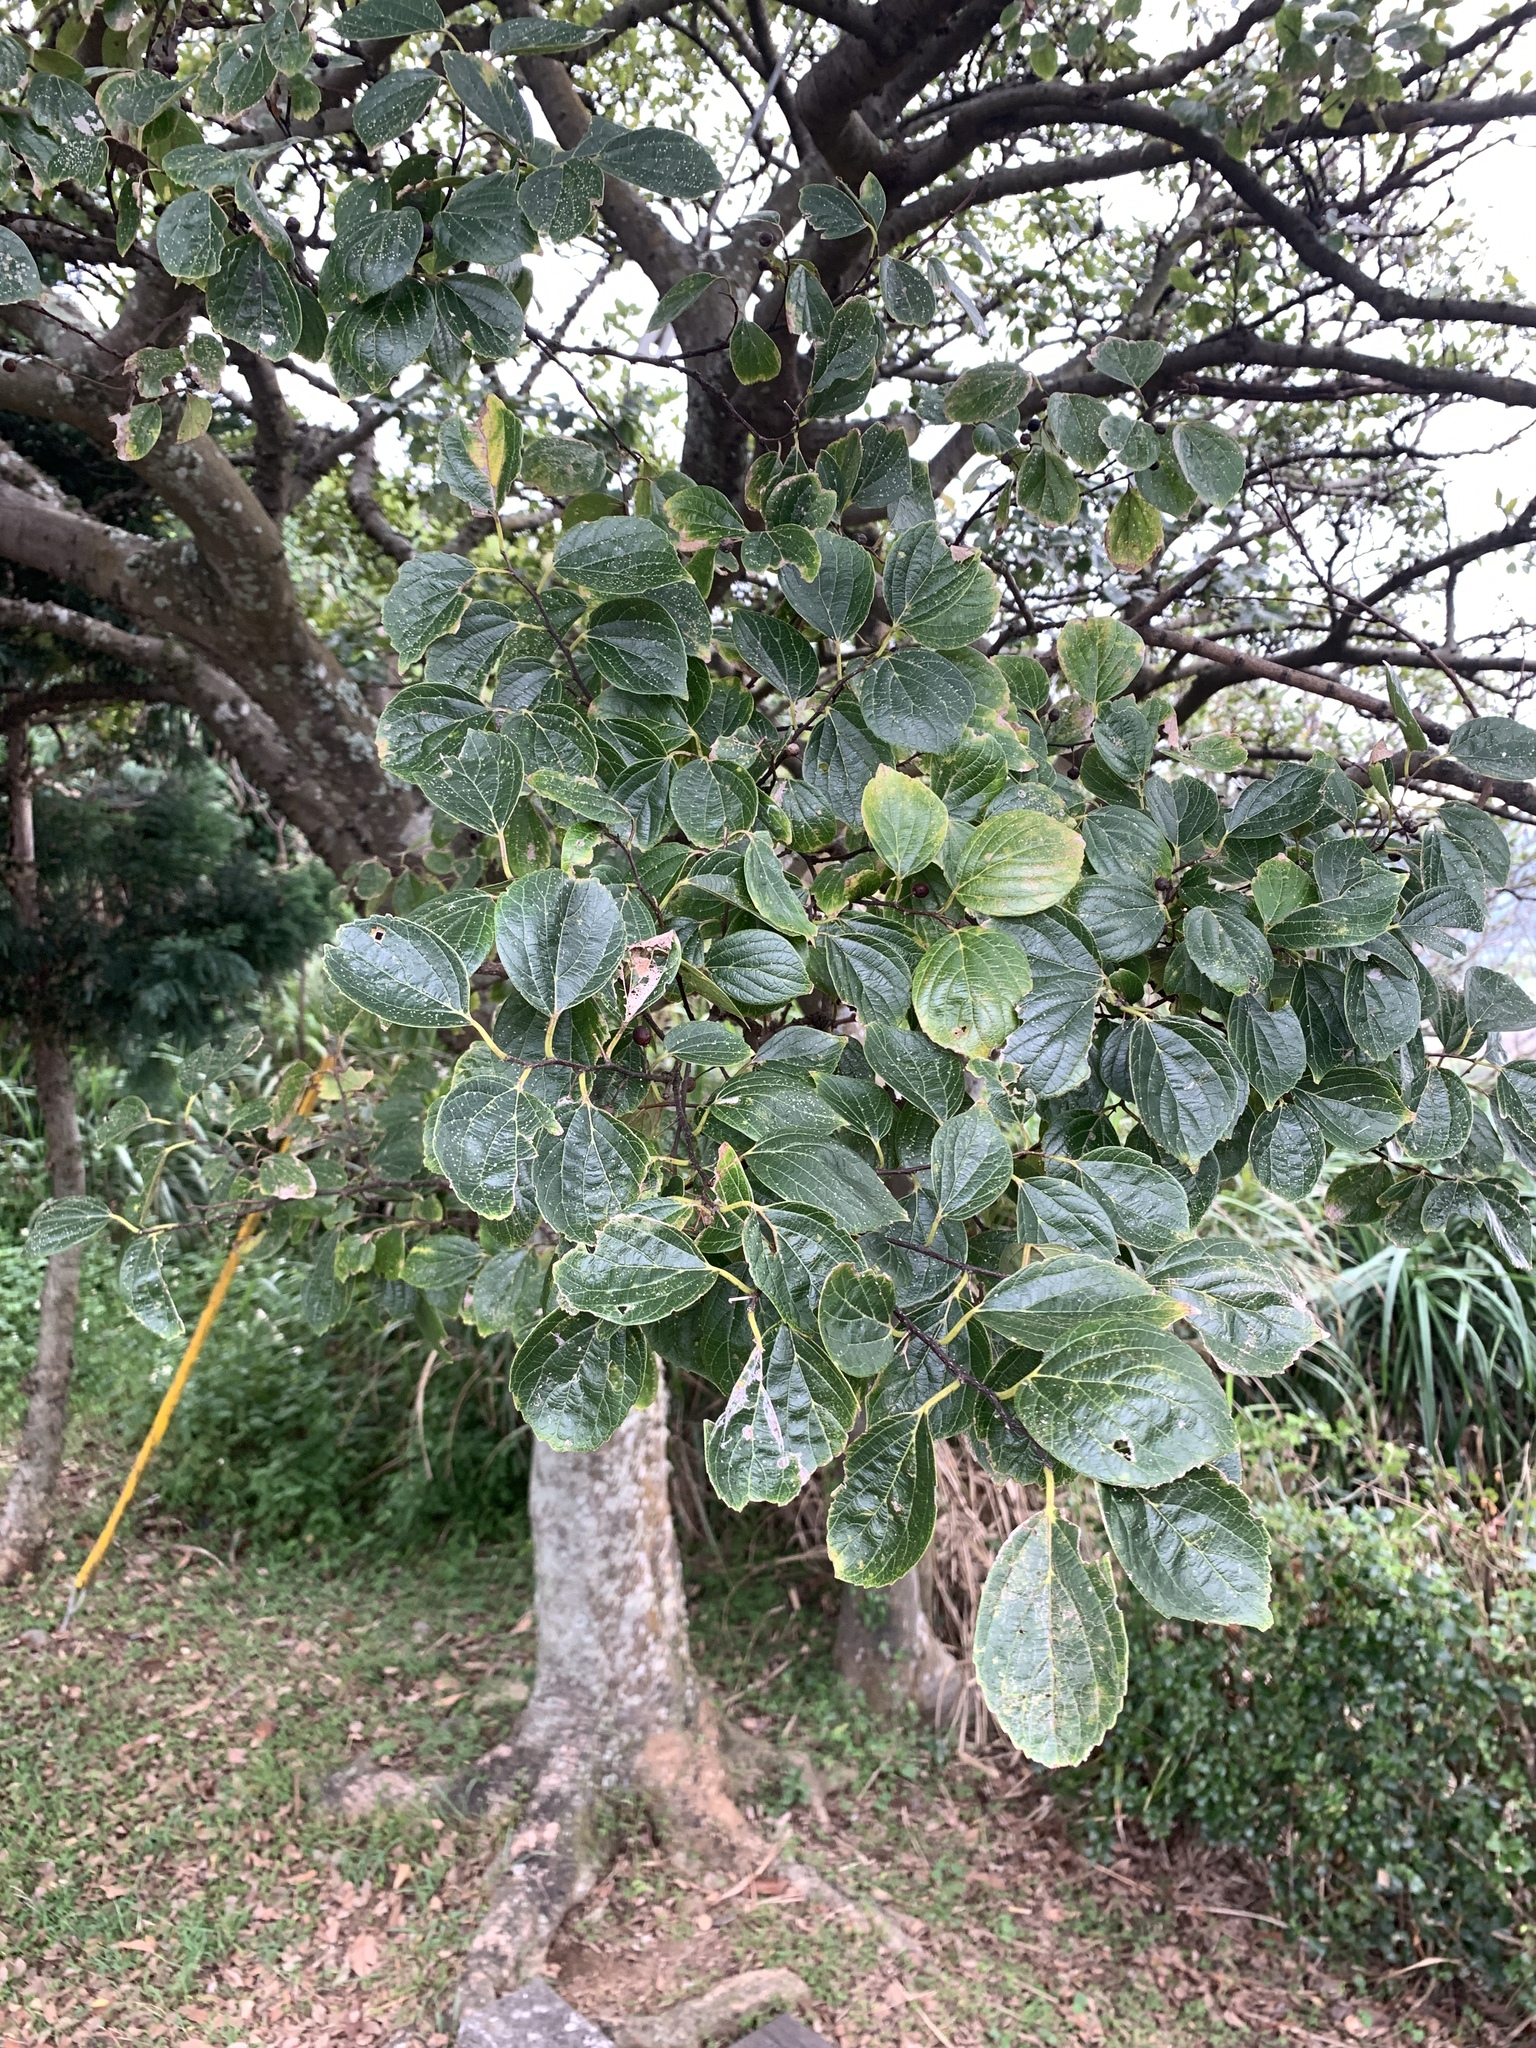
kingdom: Plantae
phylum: Tracheophyta
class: Magnoliopsida
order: Rosales
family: Cannabaceae
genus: Celtis
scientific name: Celtis sinensis
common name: Chinese hackberry
